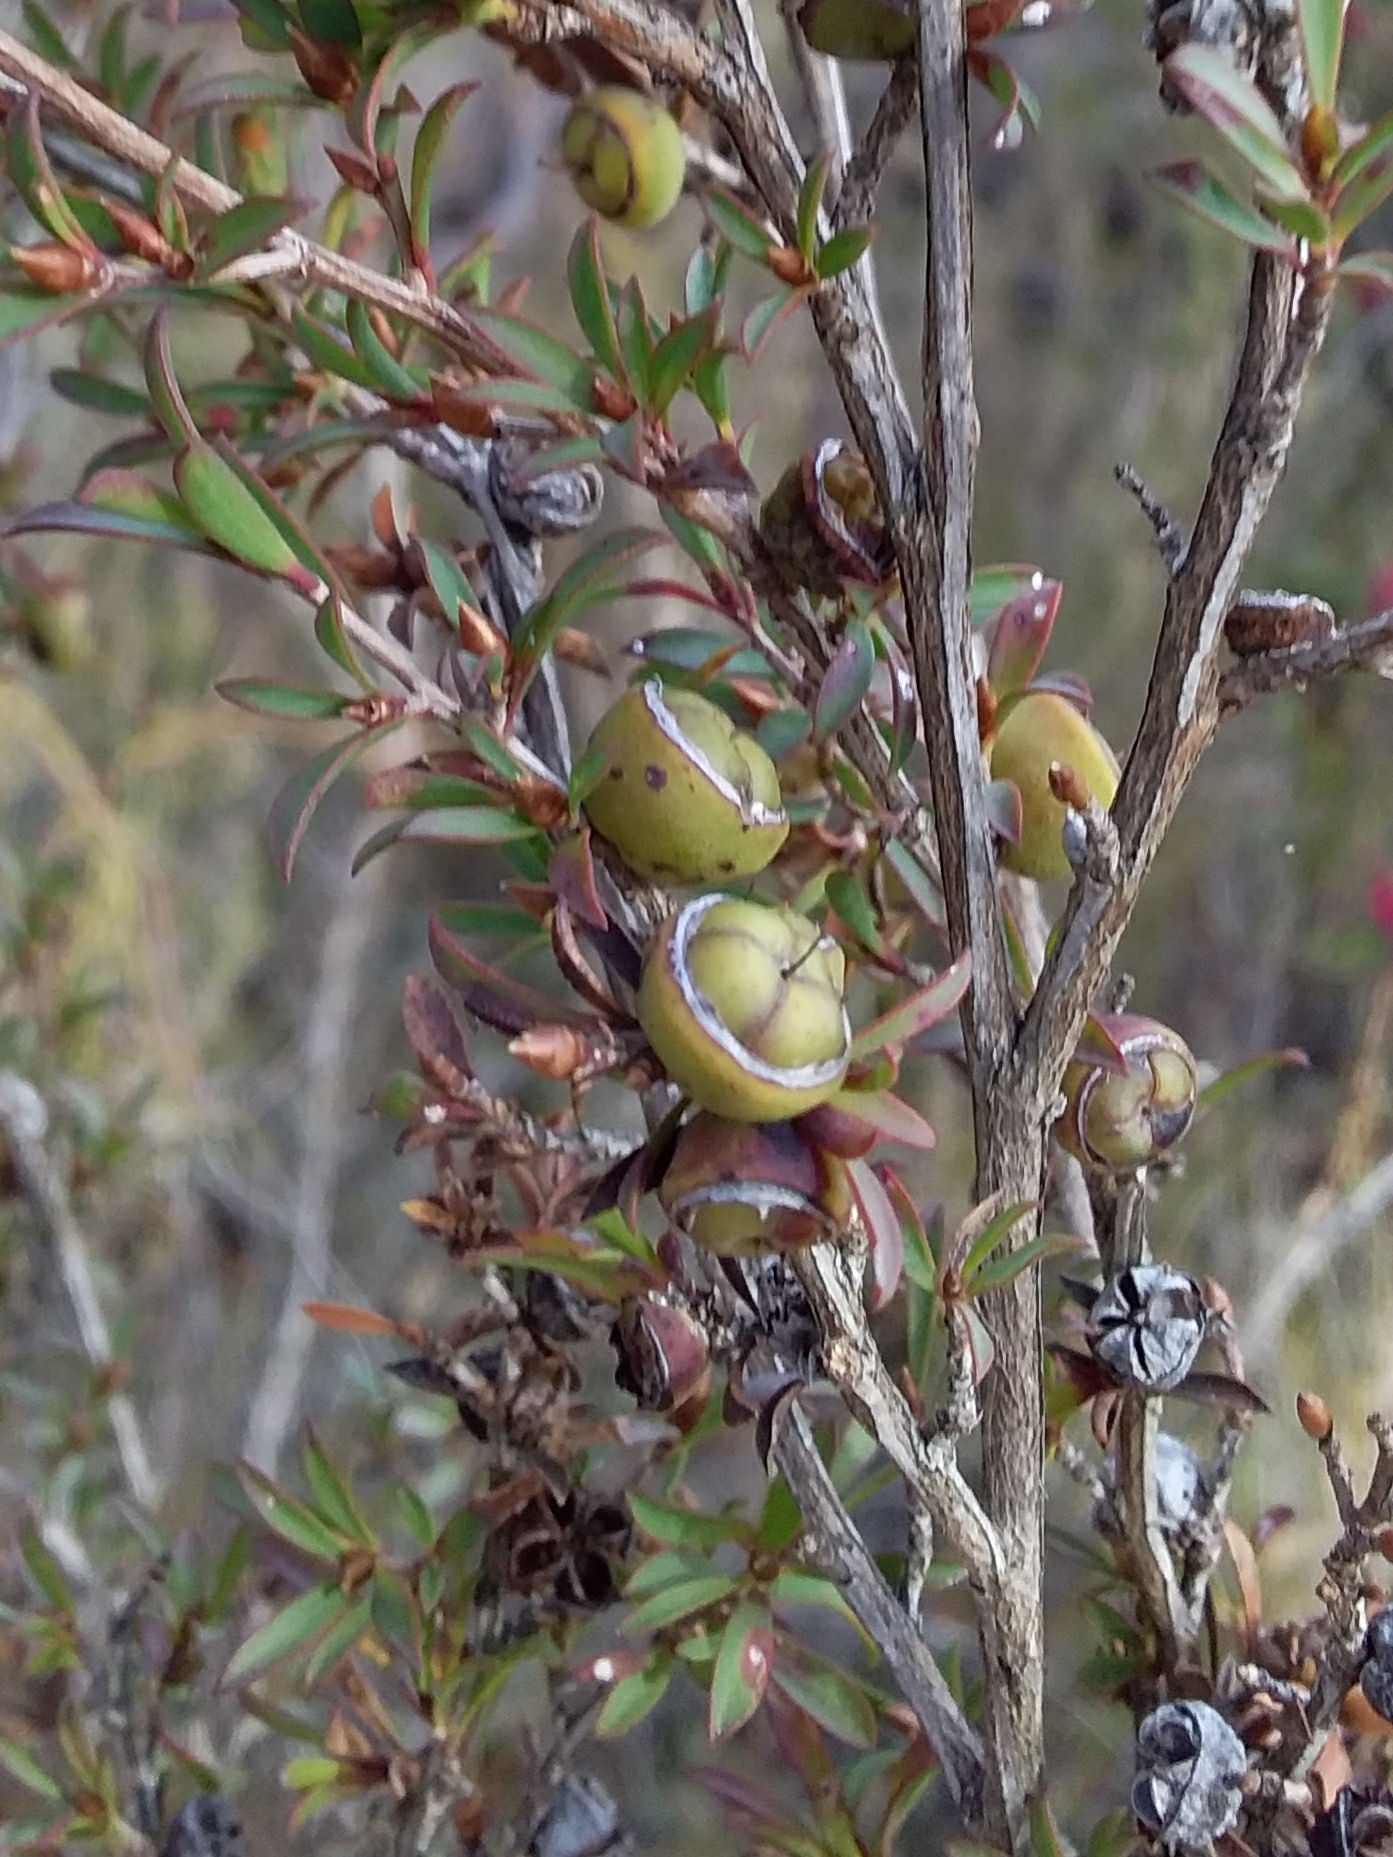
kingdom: Plantae
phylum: Tracheophyta
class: Magnoliopsida
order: Myrtales
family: Myrtaceae
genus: Leptospermum
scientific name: Leptospermum myrsinoides
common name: Heath teatree
